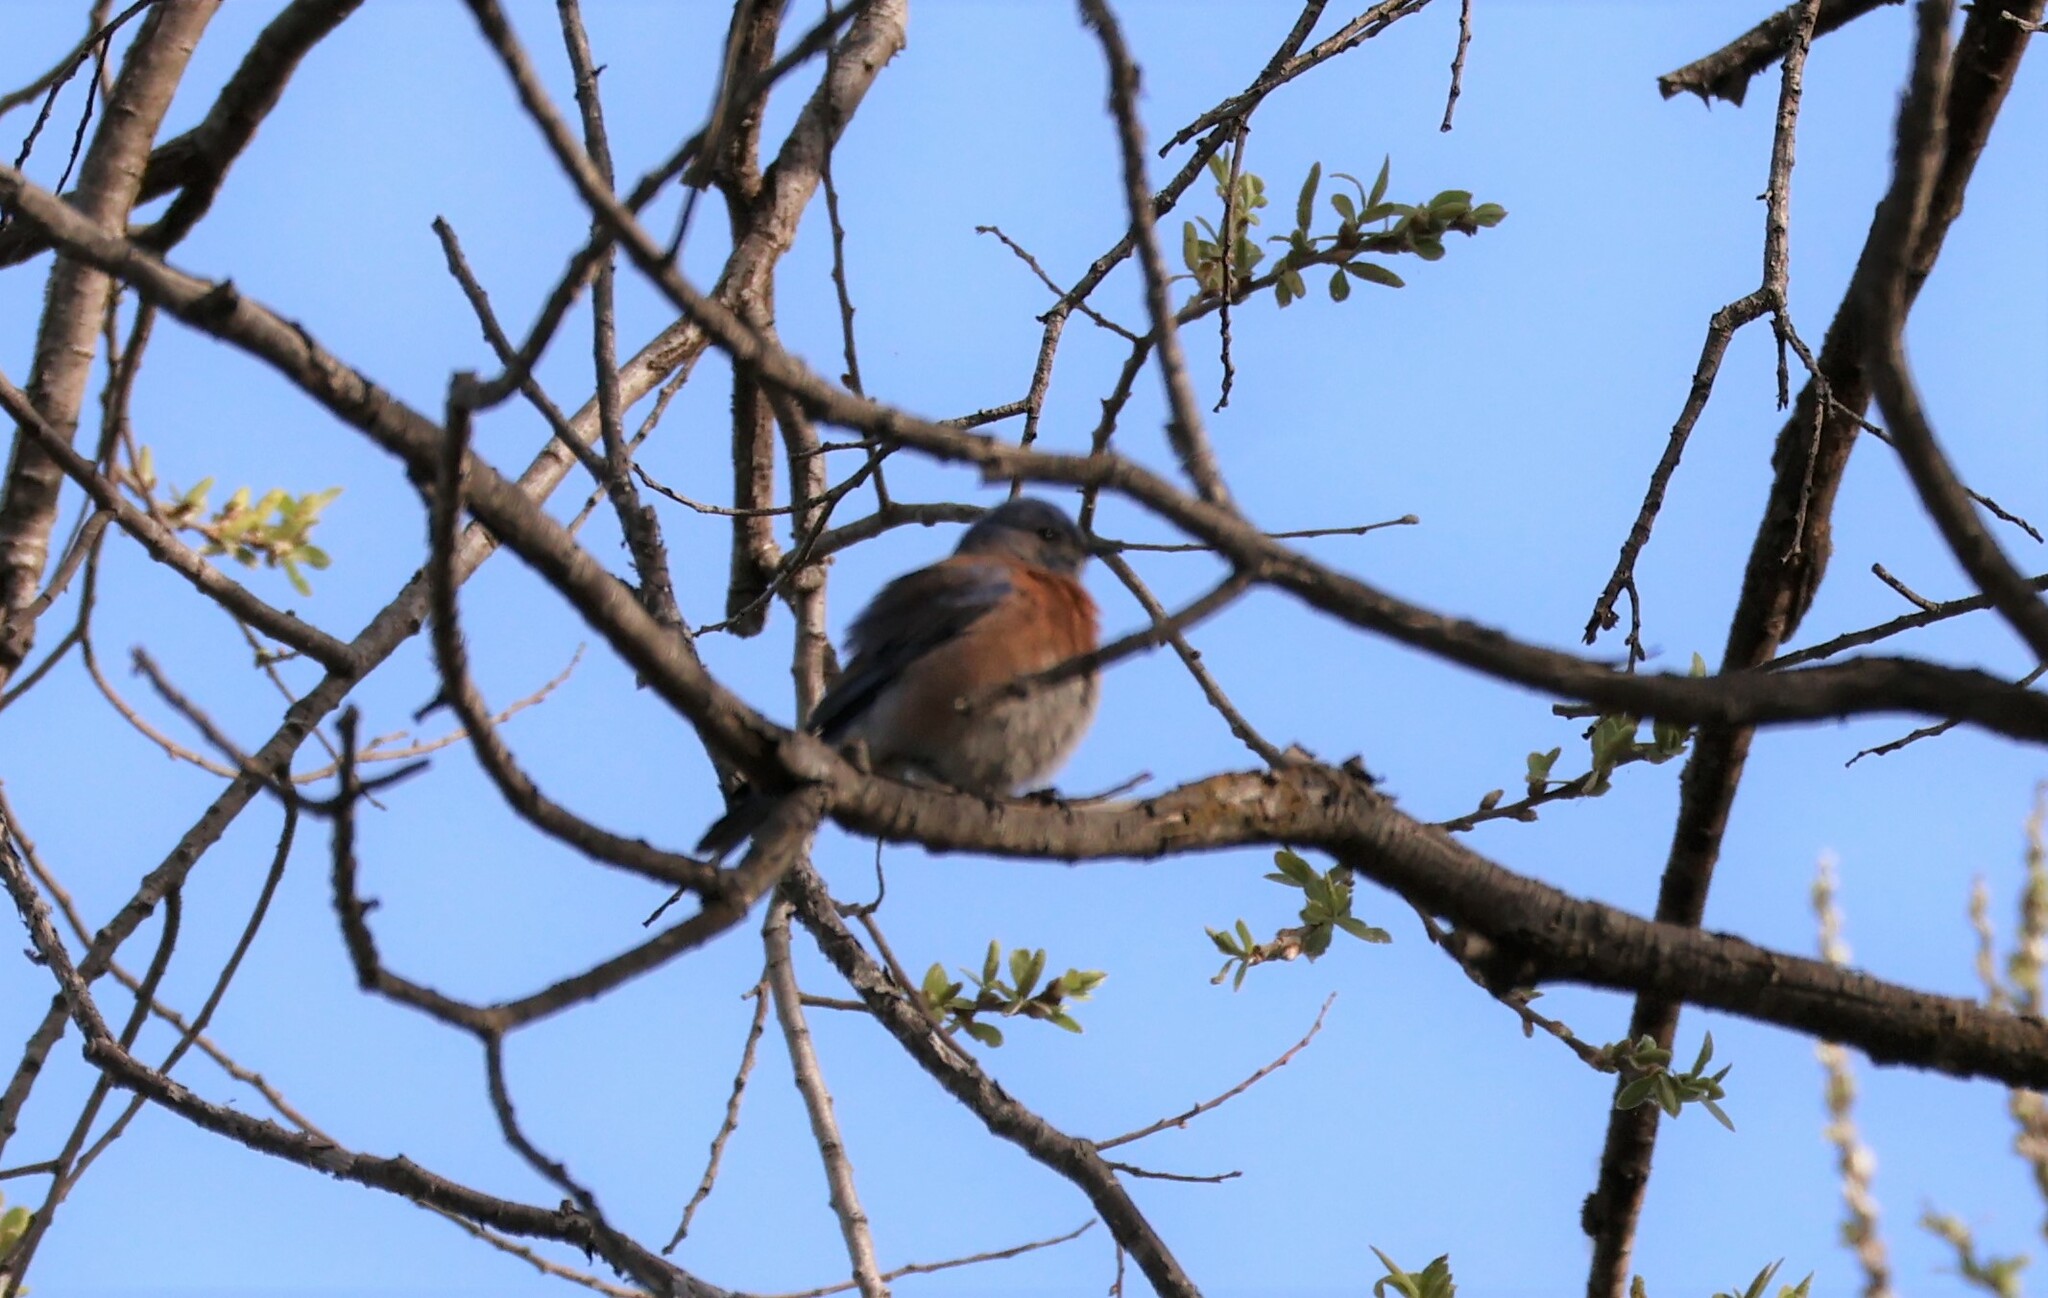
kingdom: Animalia
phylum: Chordata
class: Aves
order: Passeriformes
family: Turdidae
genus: Sialia
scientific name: Sialia mexicana
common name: Western bluebird
